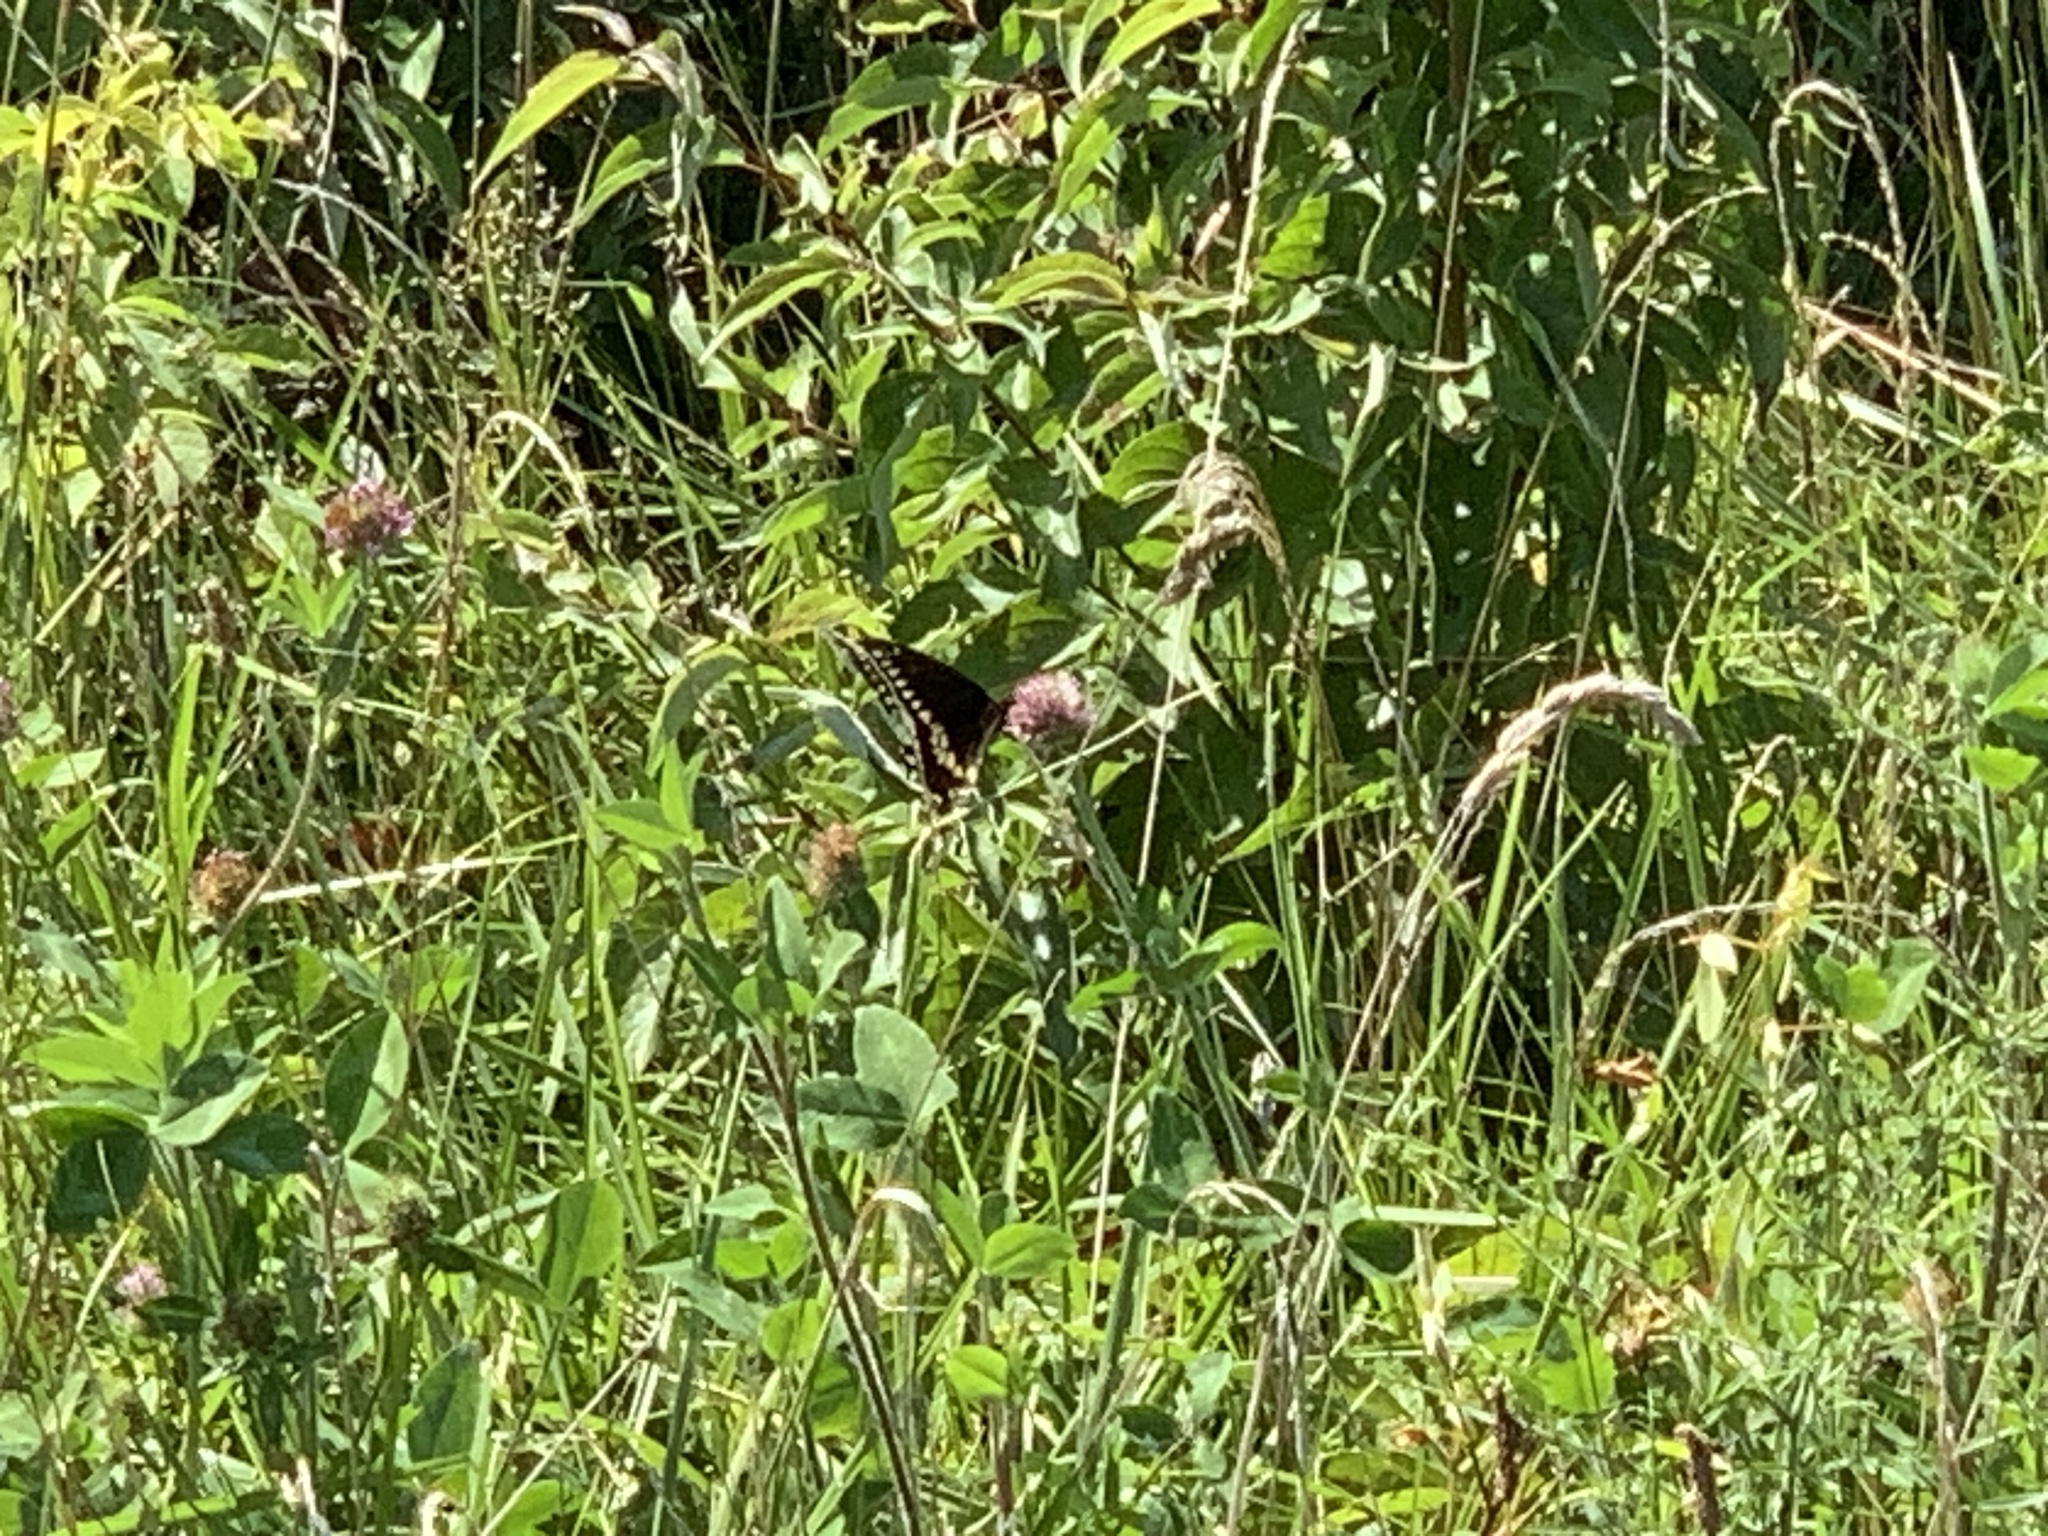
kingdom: Animalia
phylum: Arthropoda
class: Insecta
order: Lepidoptera
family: Papilionidae
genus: Papilio
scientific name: Papilio polyxenes
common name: Black swallowtail
